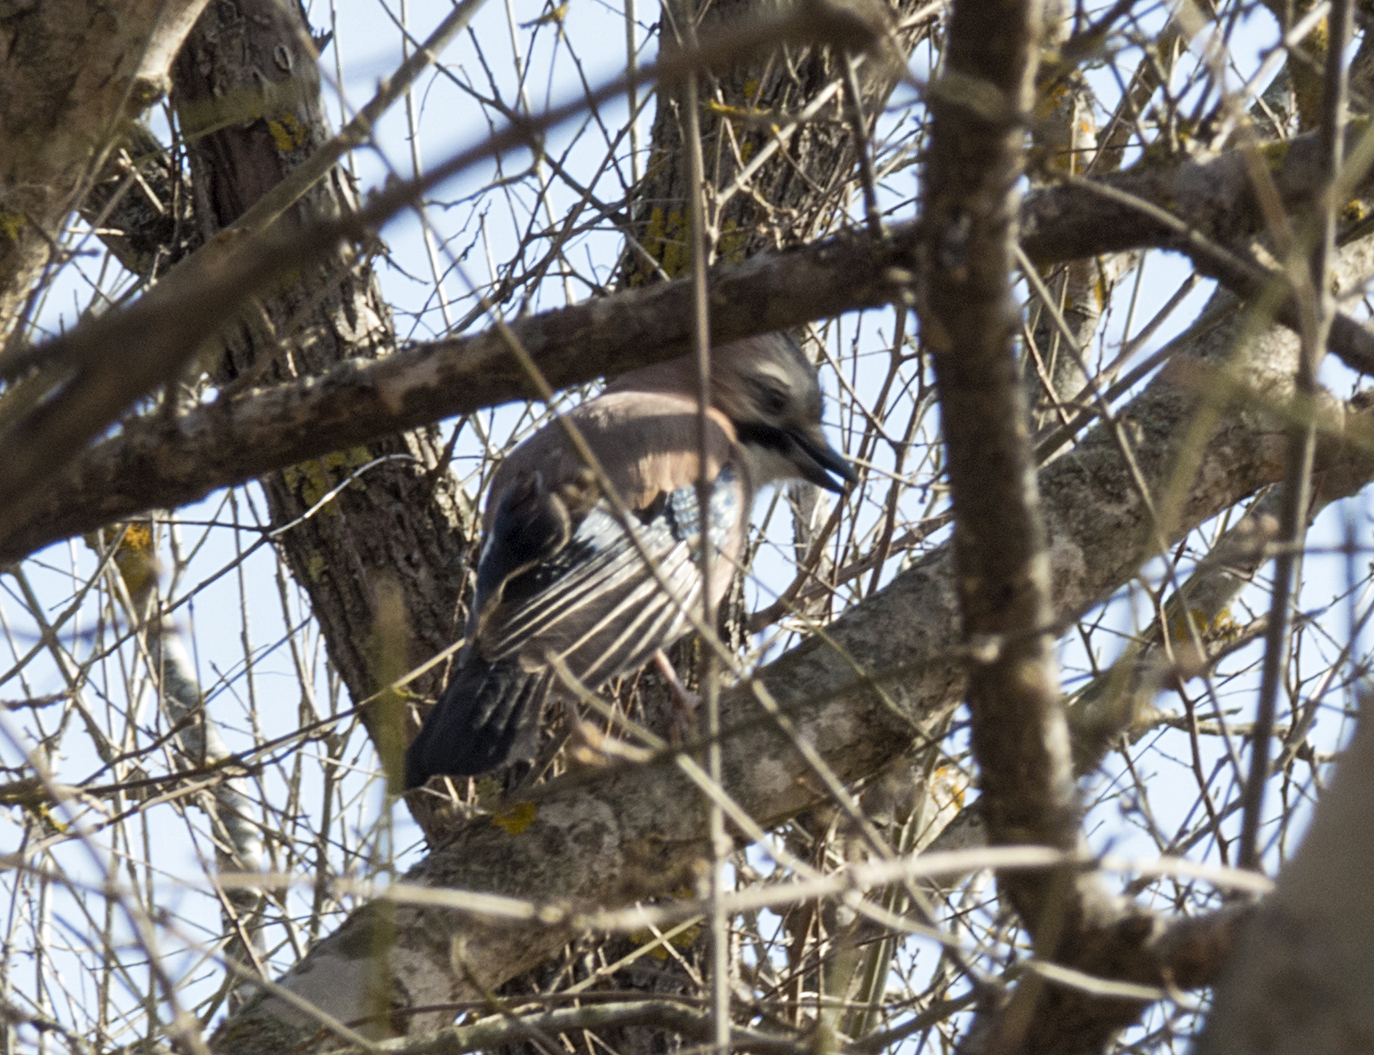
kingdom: Animalia
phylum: Chordata
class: Aves
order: Passeriformes
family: Corvidae
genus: Garrulus
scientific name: Garrulus glandarius
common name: Eurasian jay
